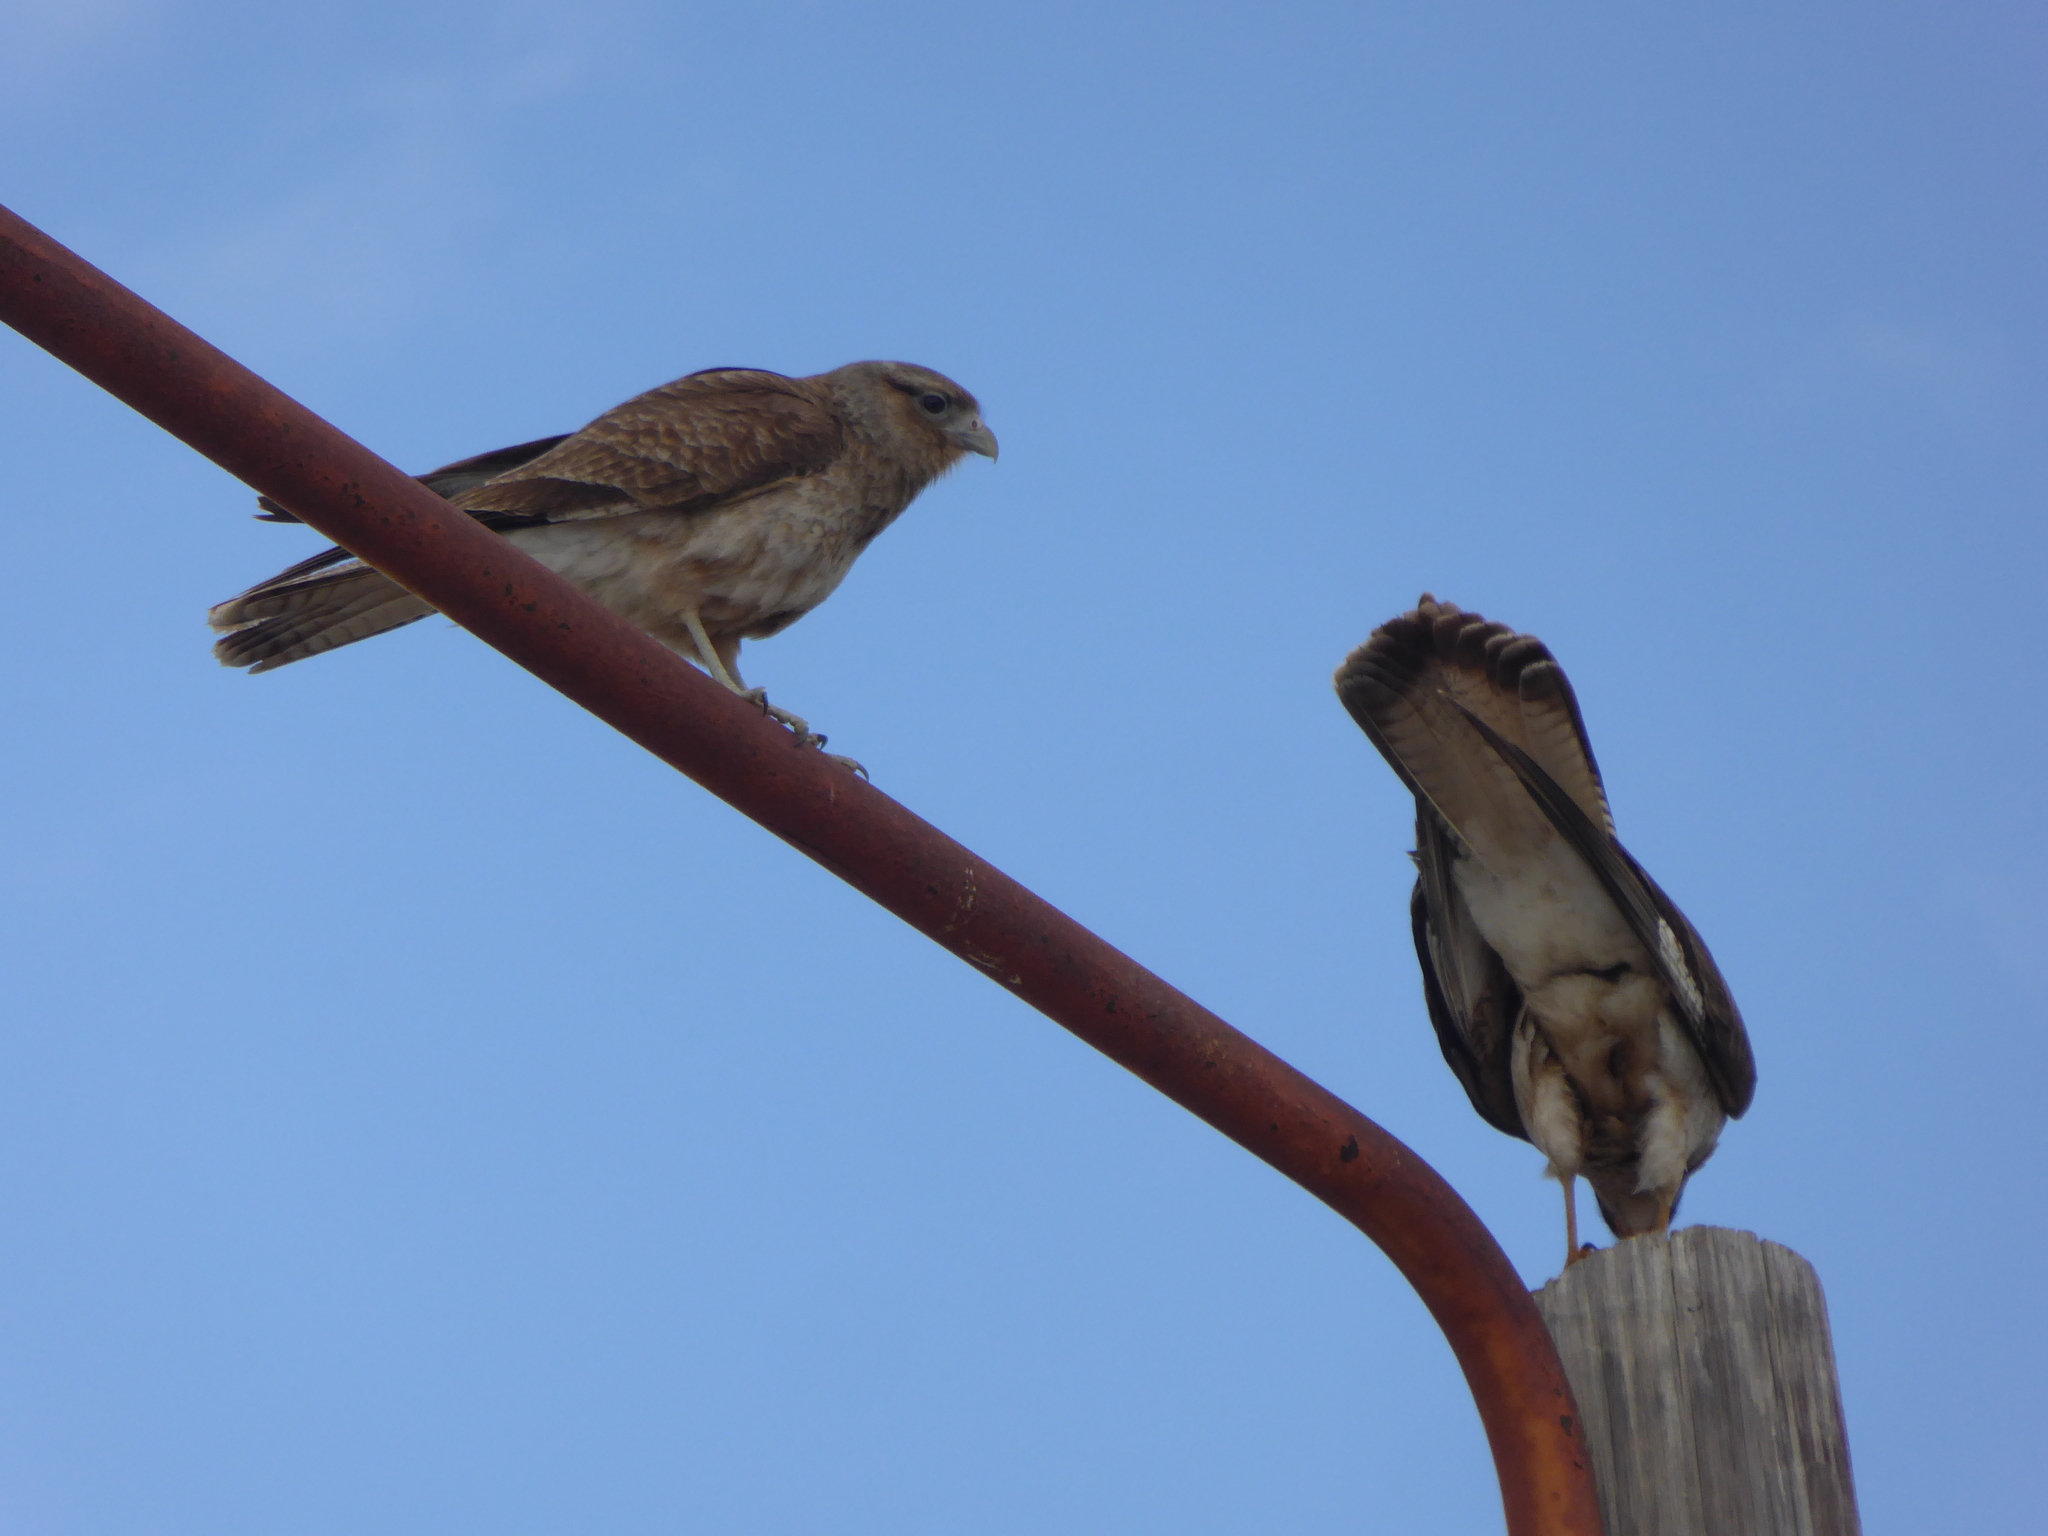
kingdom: Animalia
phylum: Chordata
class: Aves
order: Falconiformes
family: Falconidae
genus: Daptrius
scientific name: Daptrius
